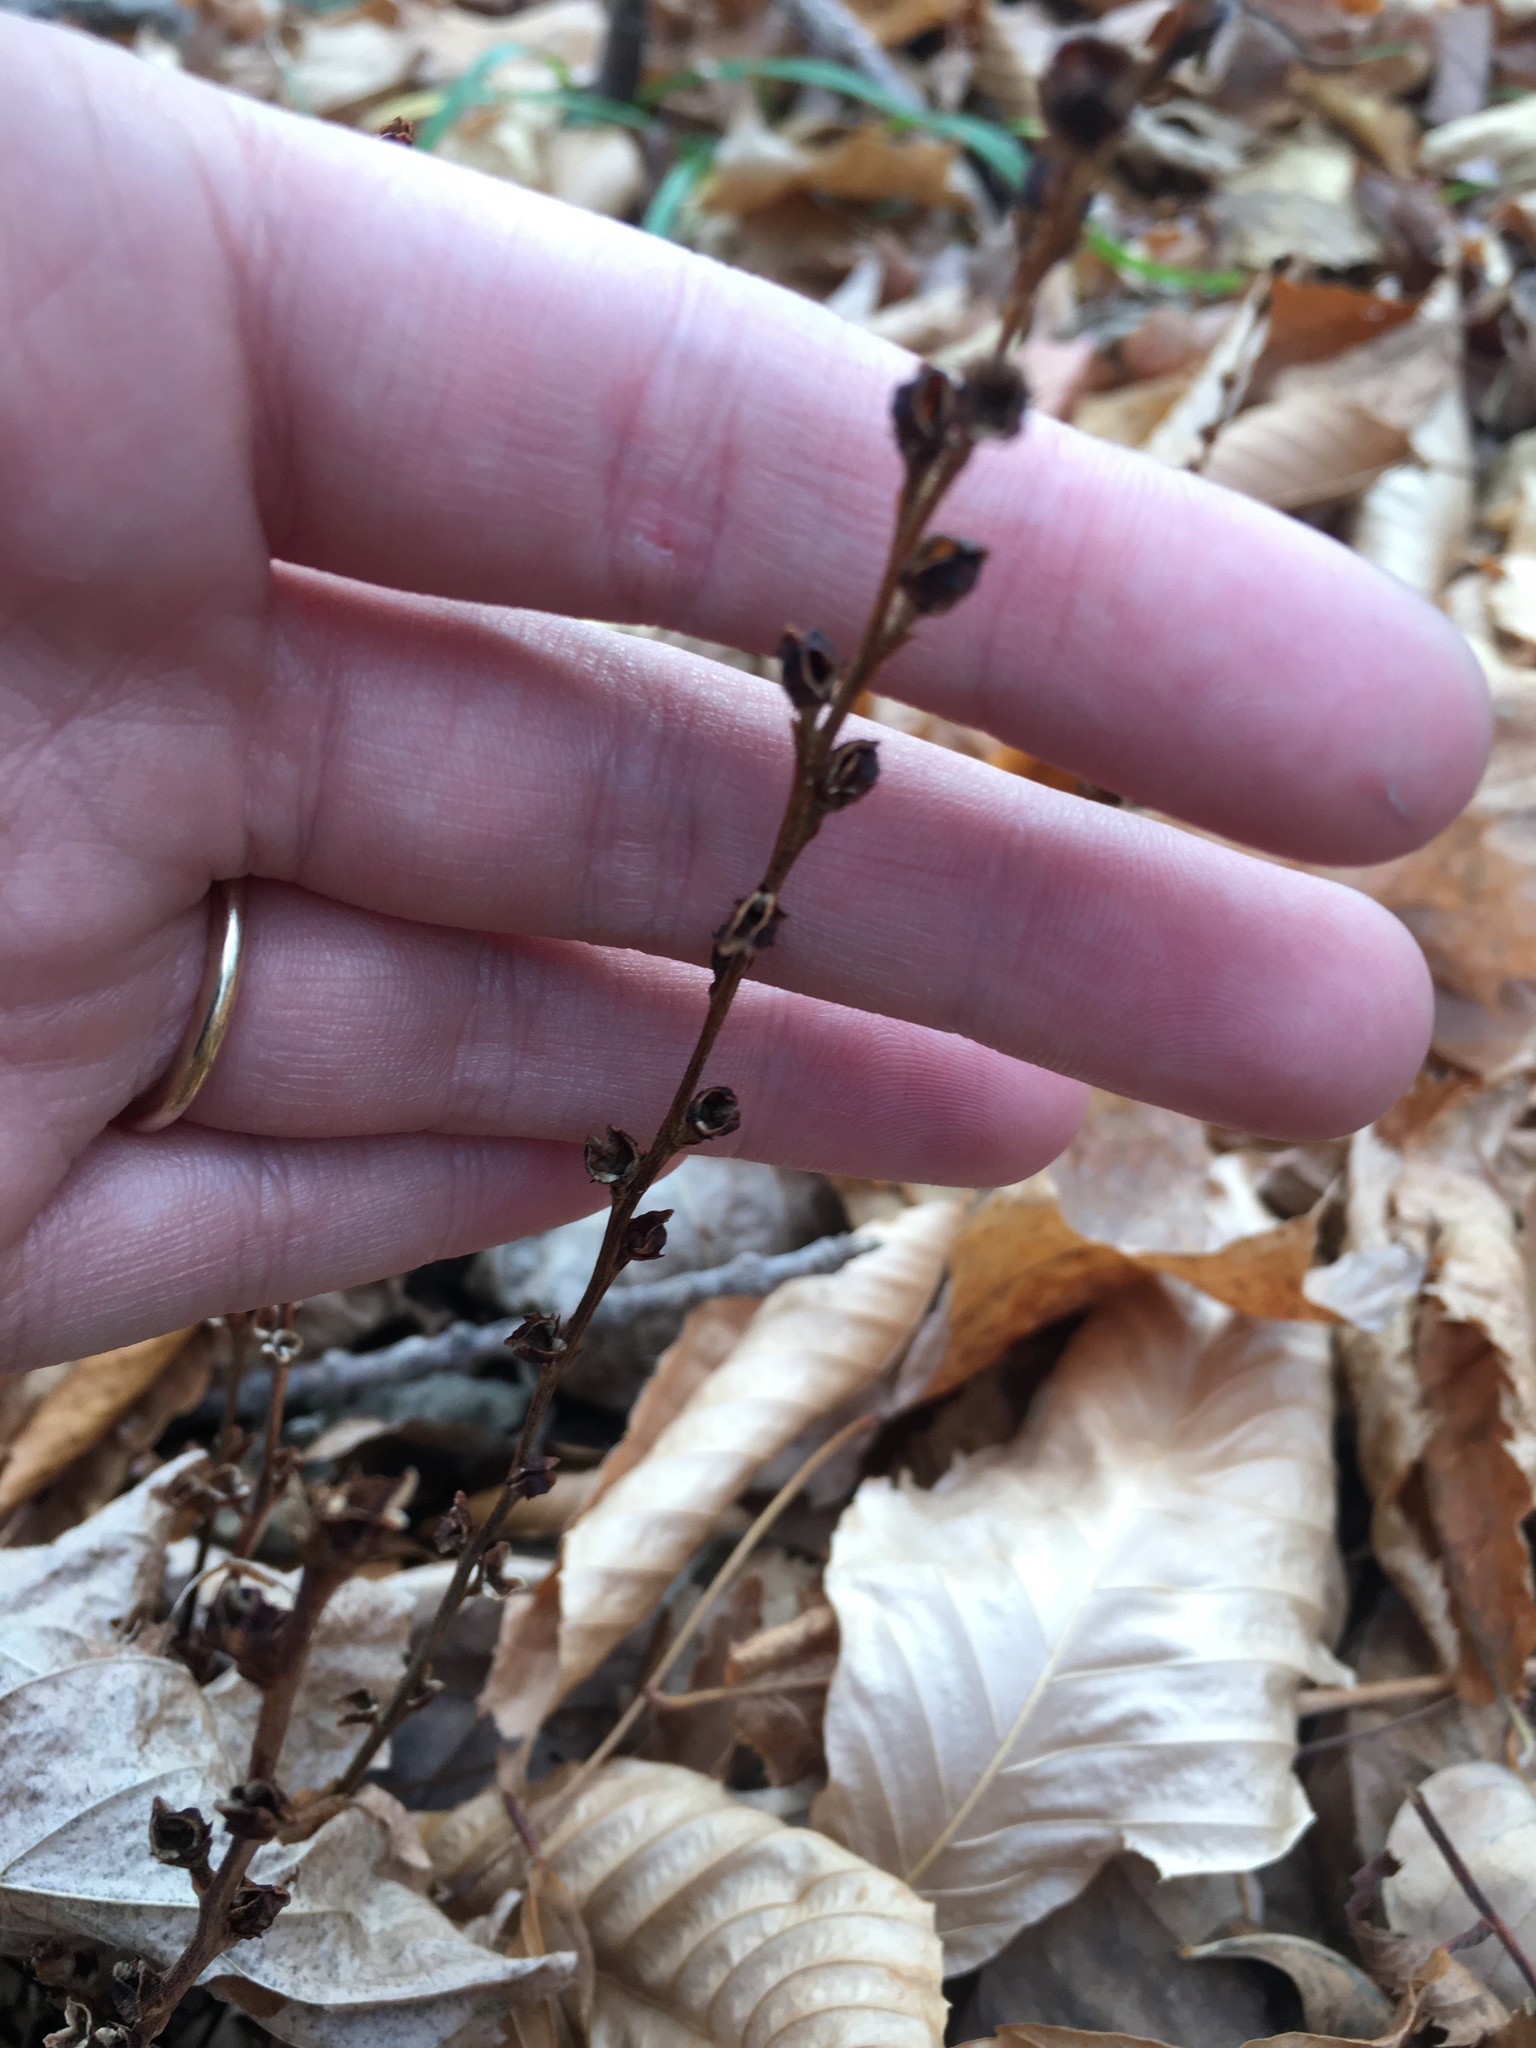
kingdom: Plantae
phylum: Tracheophyta
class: Magnoliopsida
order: Lamiales
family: Orobanchaceae
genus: Epifagus
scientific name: Epifagus virginiana
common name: Beechdrops
